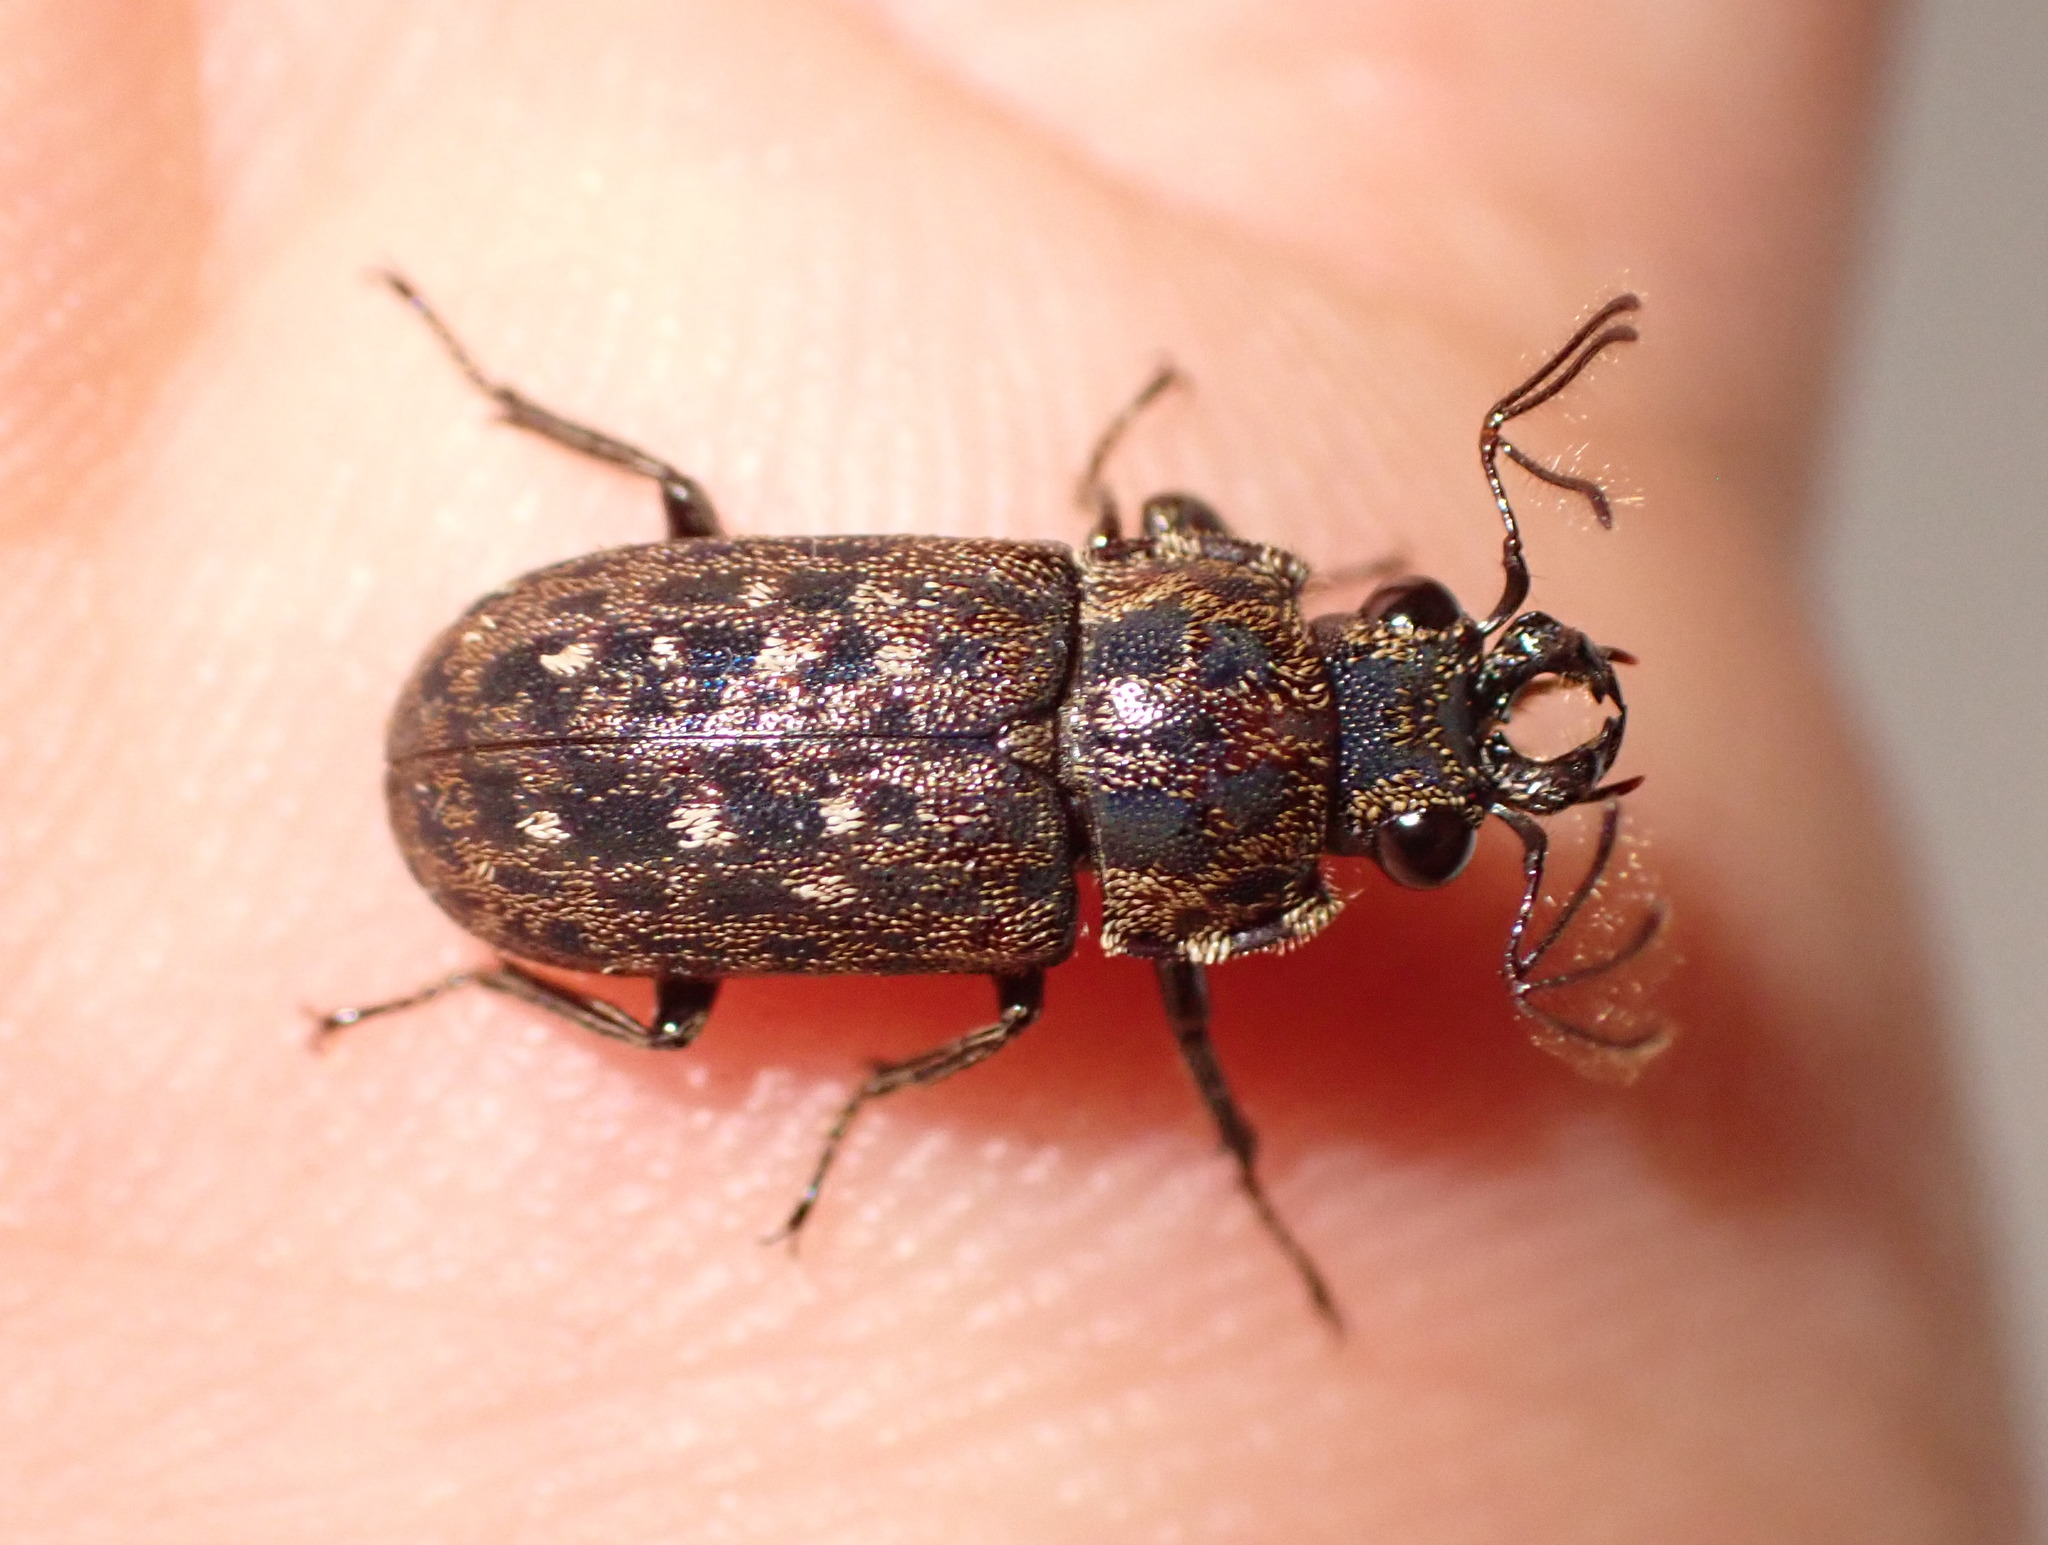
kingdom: Animalia
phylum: Arthropoda
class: Insecta
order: Coleoptera
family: Lucanidae
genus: Mitophyllus
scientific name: Mitophyllus arcuatus
